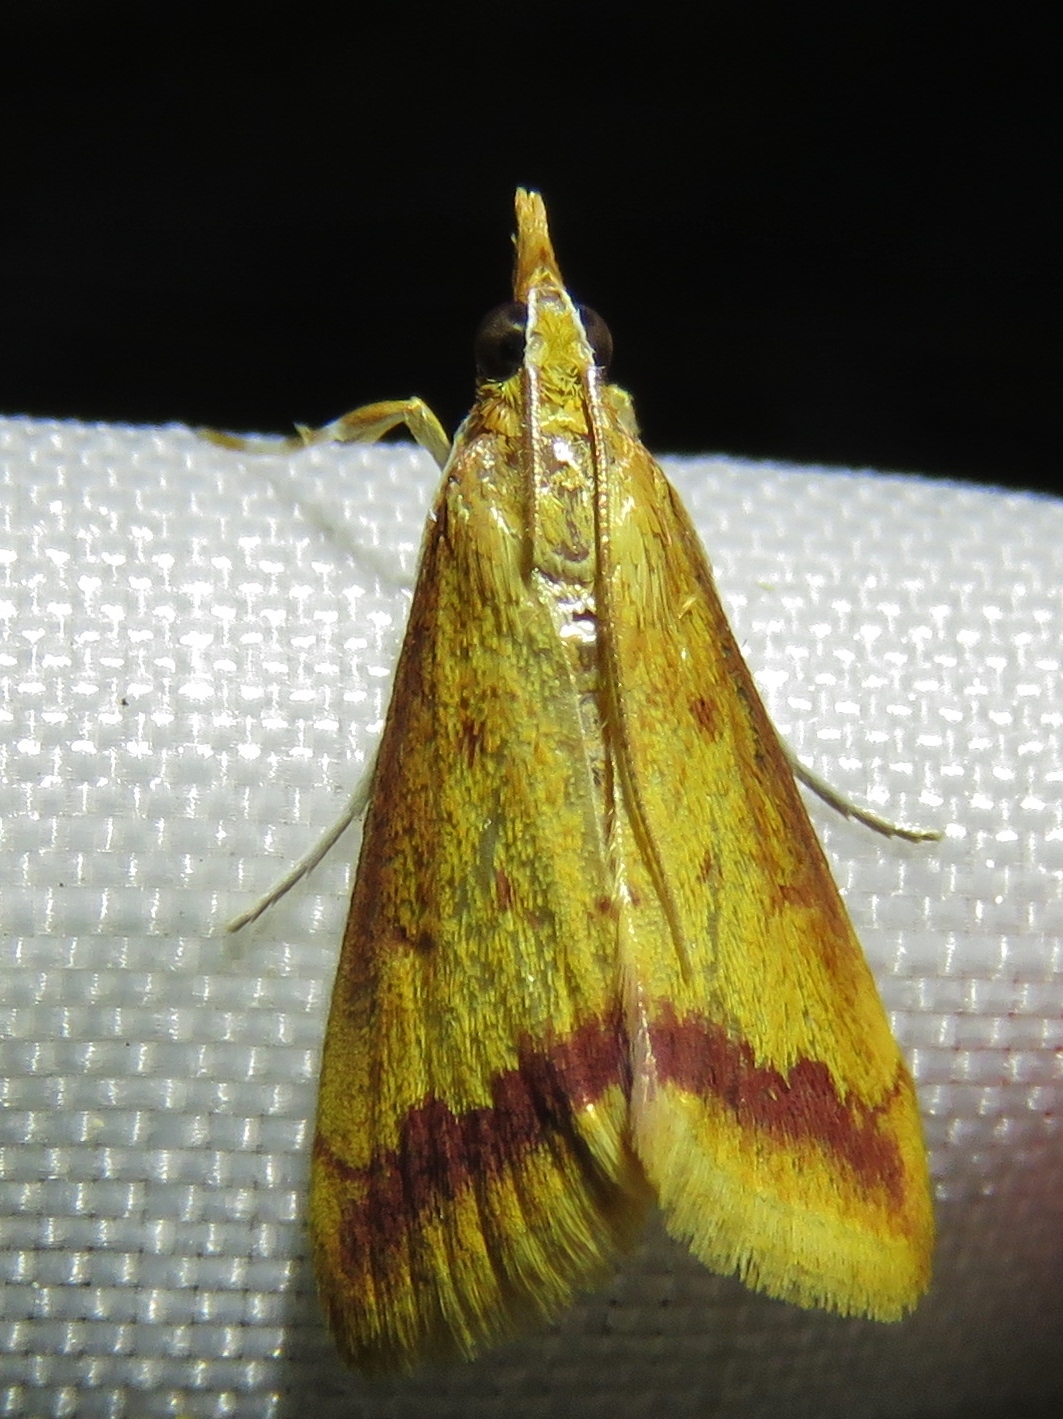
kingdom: Animalia
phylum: Arthropoda
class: Insecta
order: Lepidoptera
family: Crambidae
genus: Hyalorista
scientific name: Hyalorista taeniolalis
